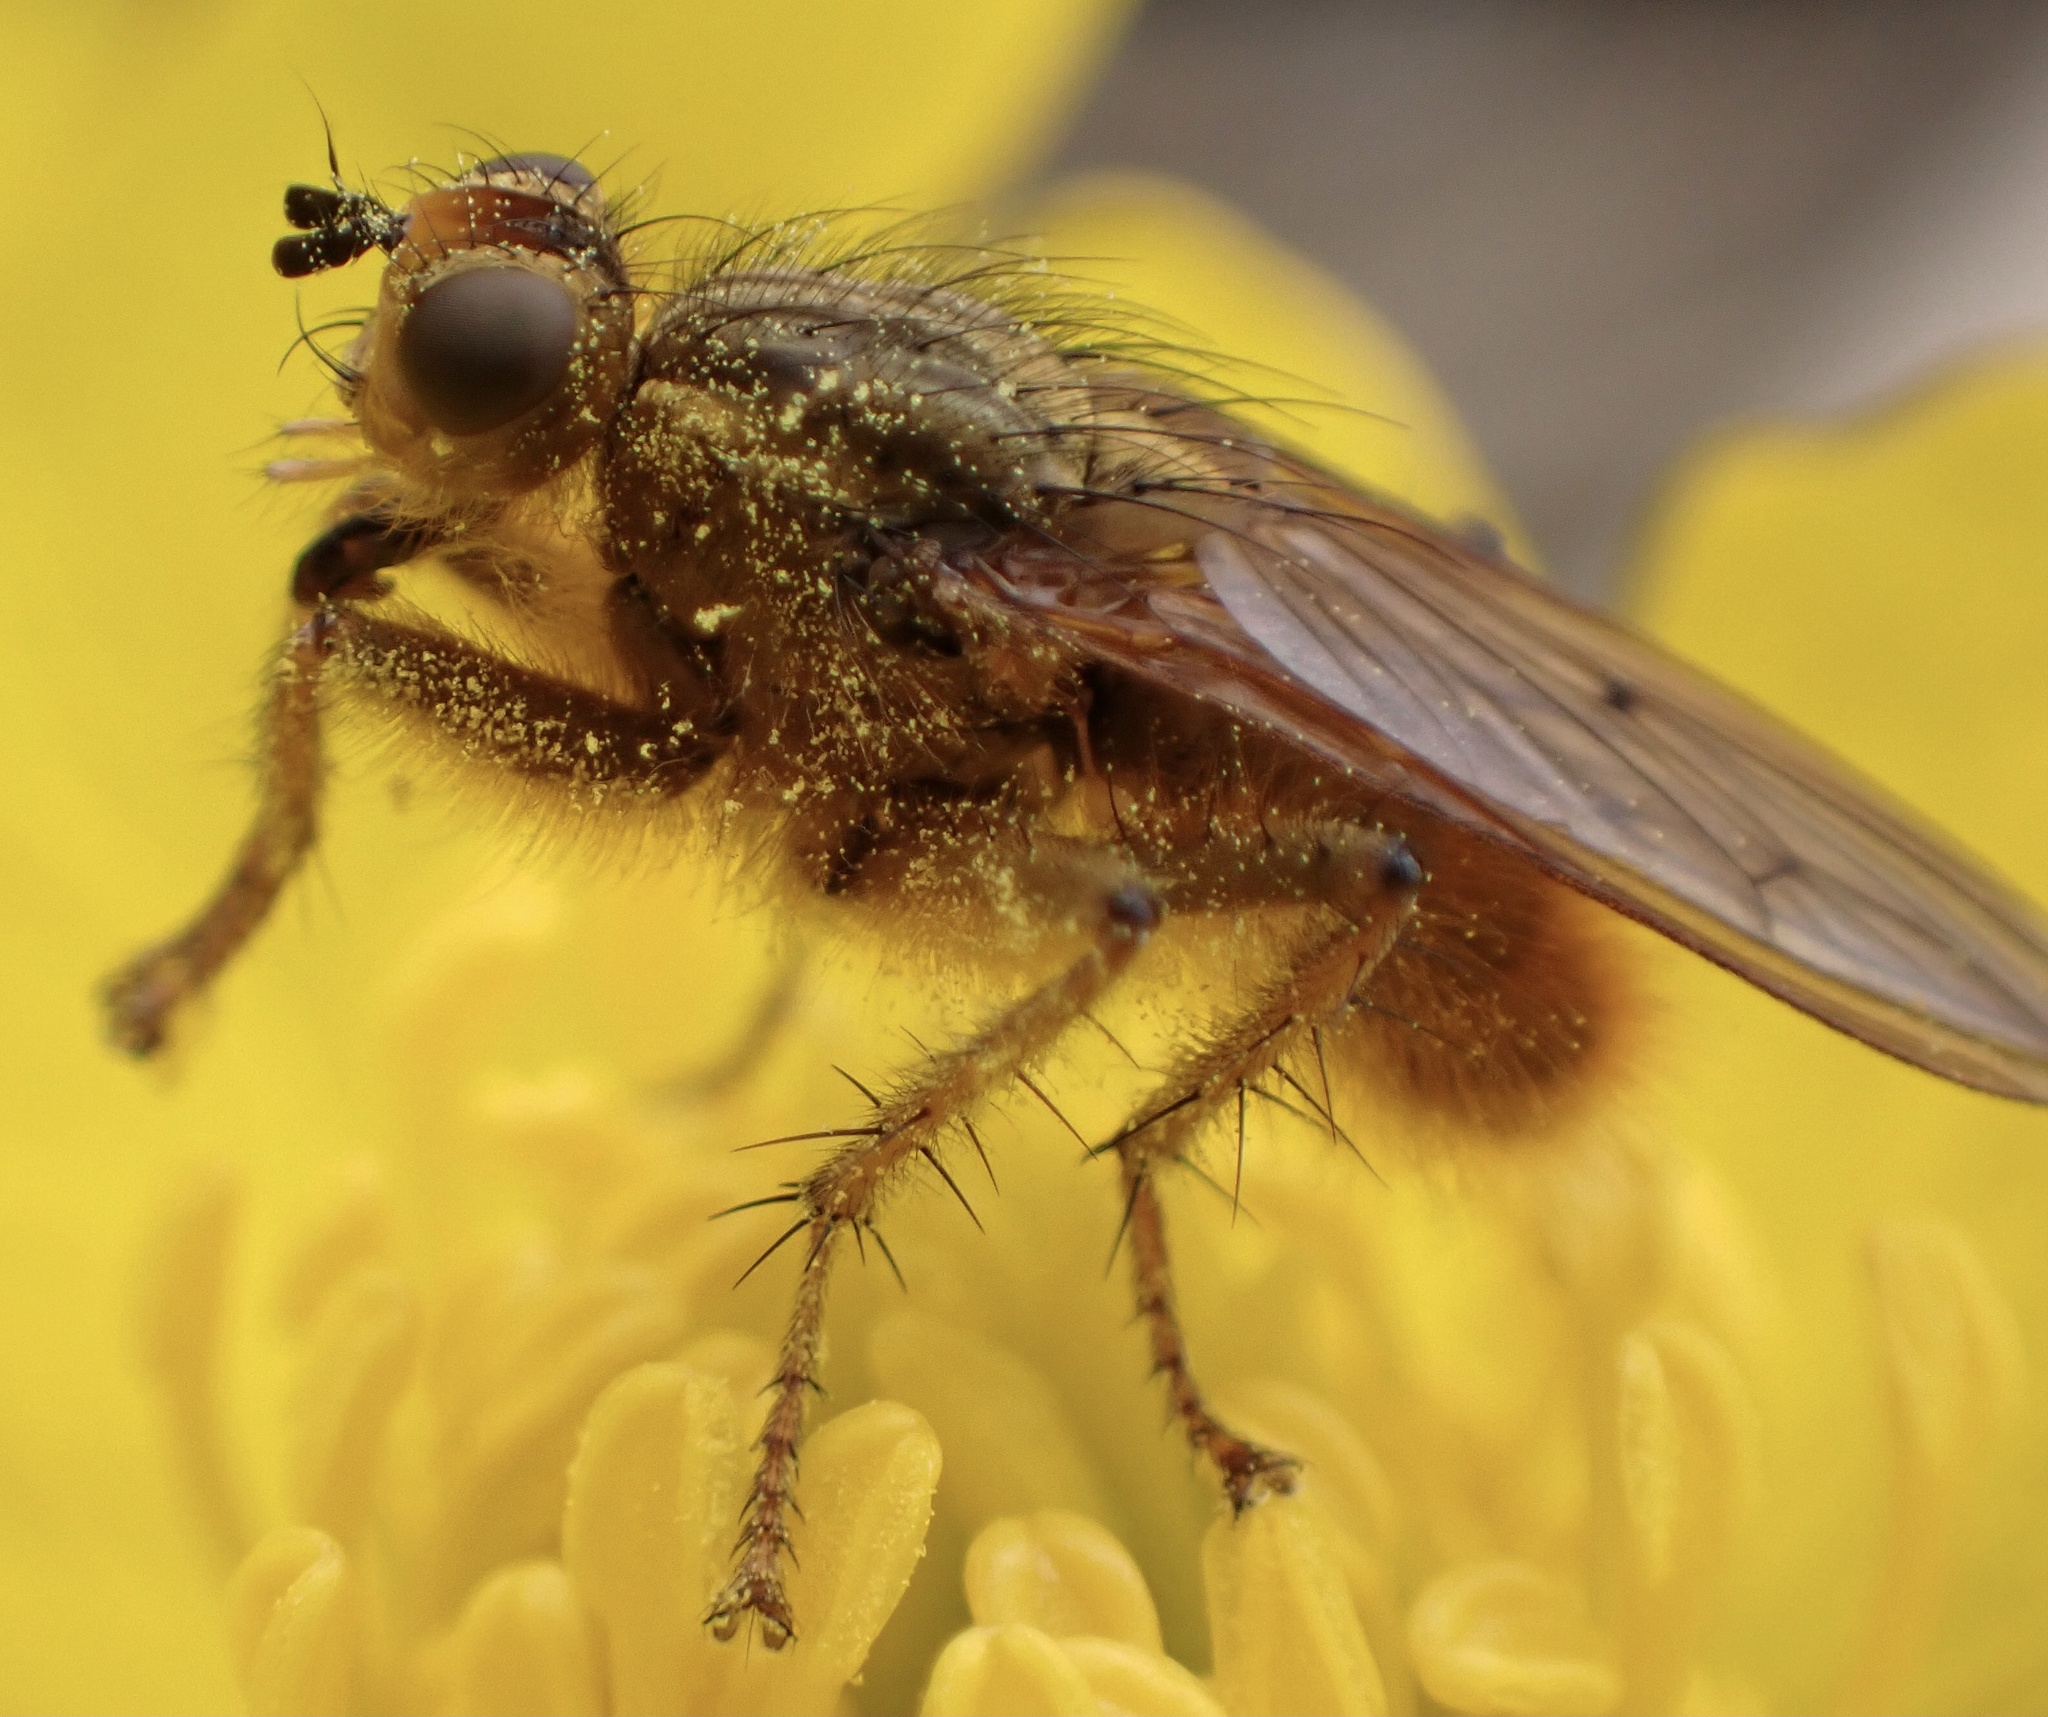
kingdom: Animalia
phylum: Arthropoda
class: Insecta
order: Diptera
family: Scathophagidae
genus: Scathophaga
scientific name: Scathophaga stercoraria
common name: Yellow dung fly
